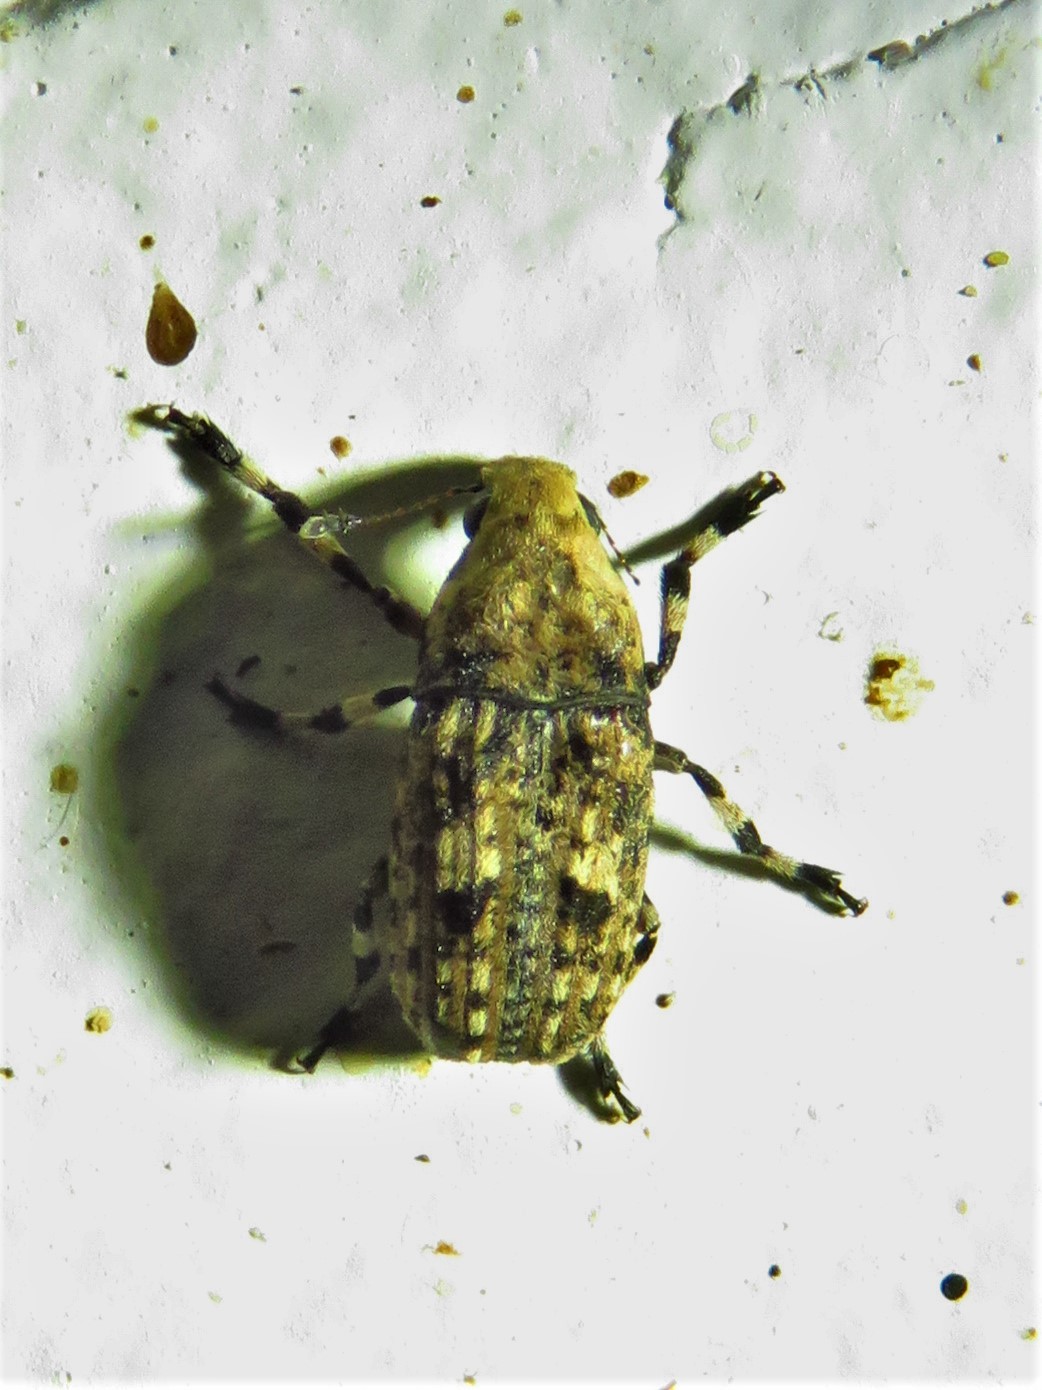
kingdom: Animalia
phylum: Arthropoda
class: Insecta
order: Coleoptera
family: Anthribidae
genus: Euparius
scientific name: Euparius marmoreus
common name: Marbled fungus weevil
